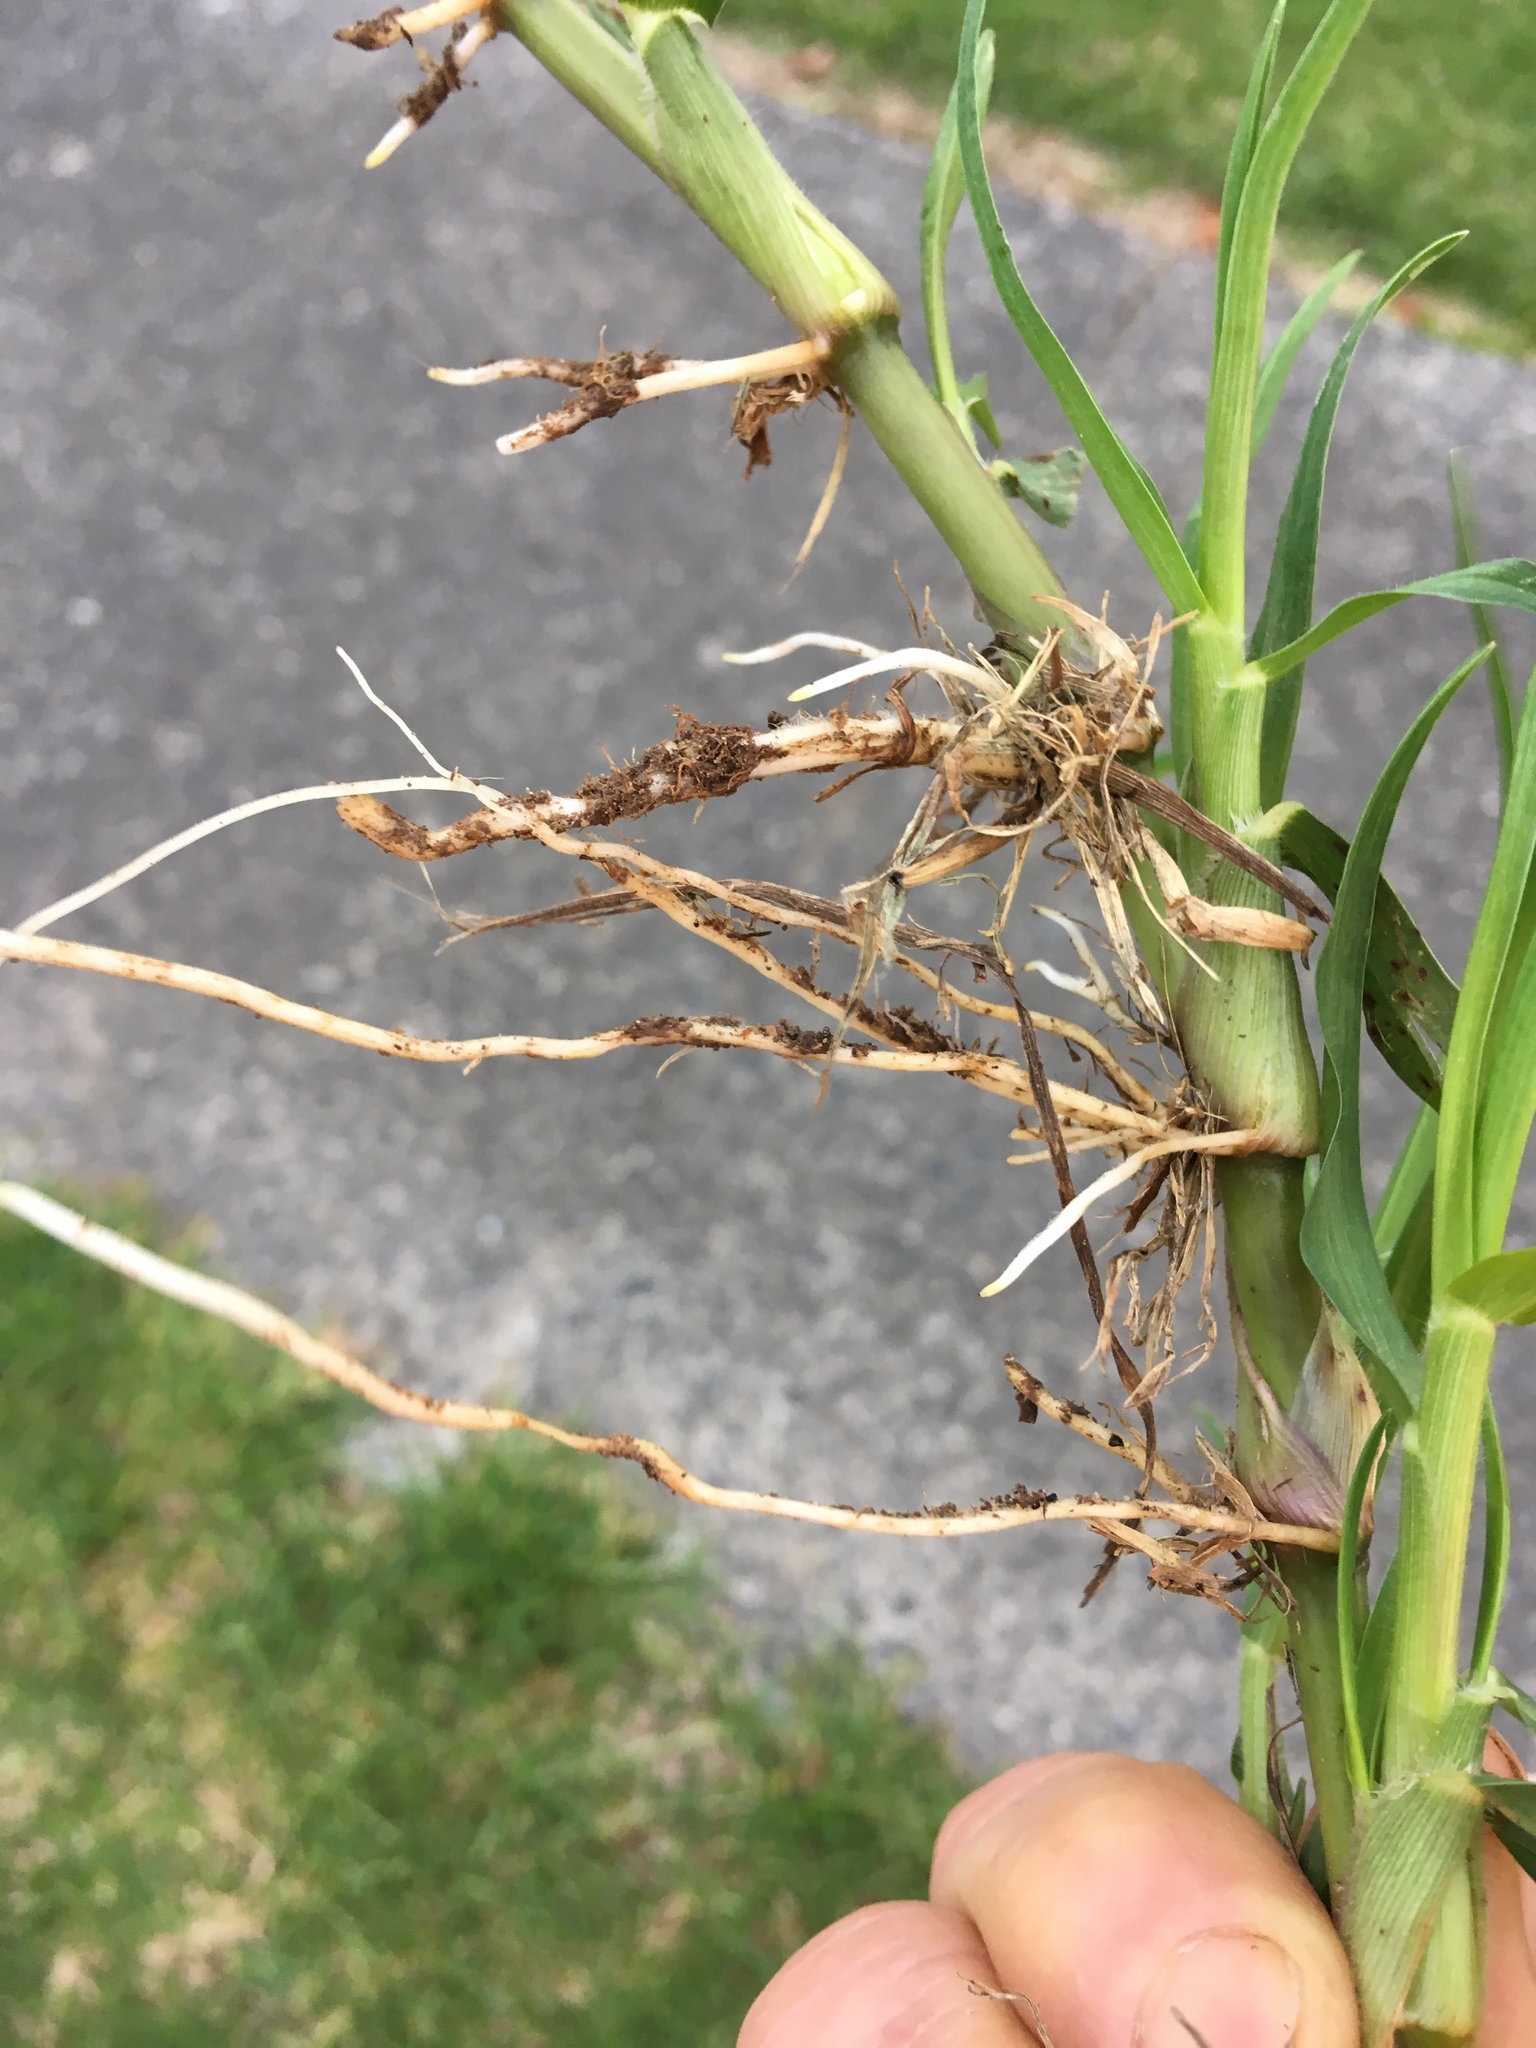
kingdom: Plantae
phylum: Tracheophyta
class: Liliopsida
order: Poales
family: Poaceae
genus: Cenchrus
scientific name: Cenchrus clandestinus
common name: Kikuyugrass
